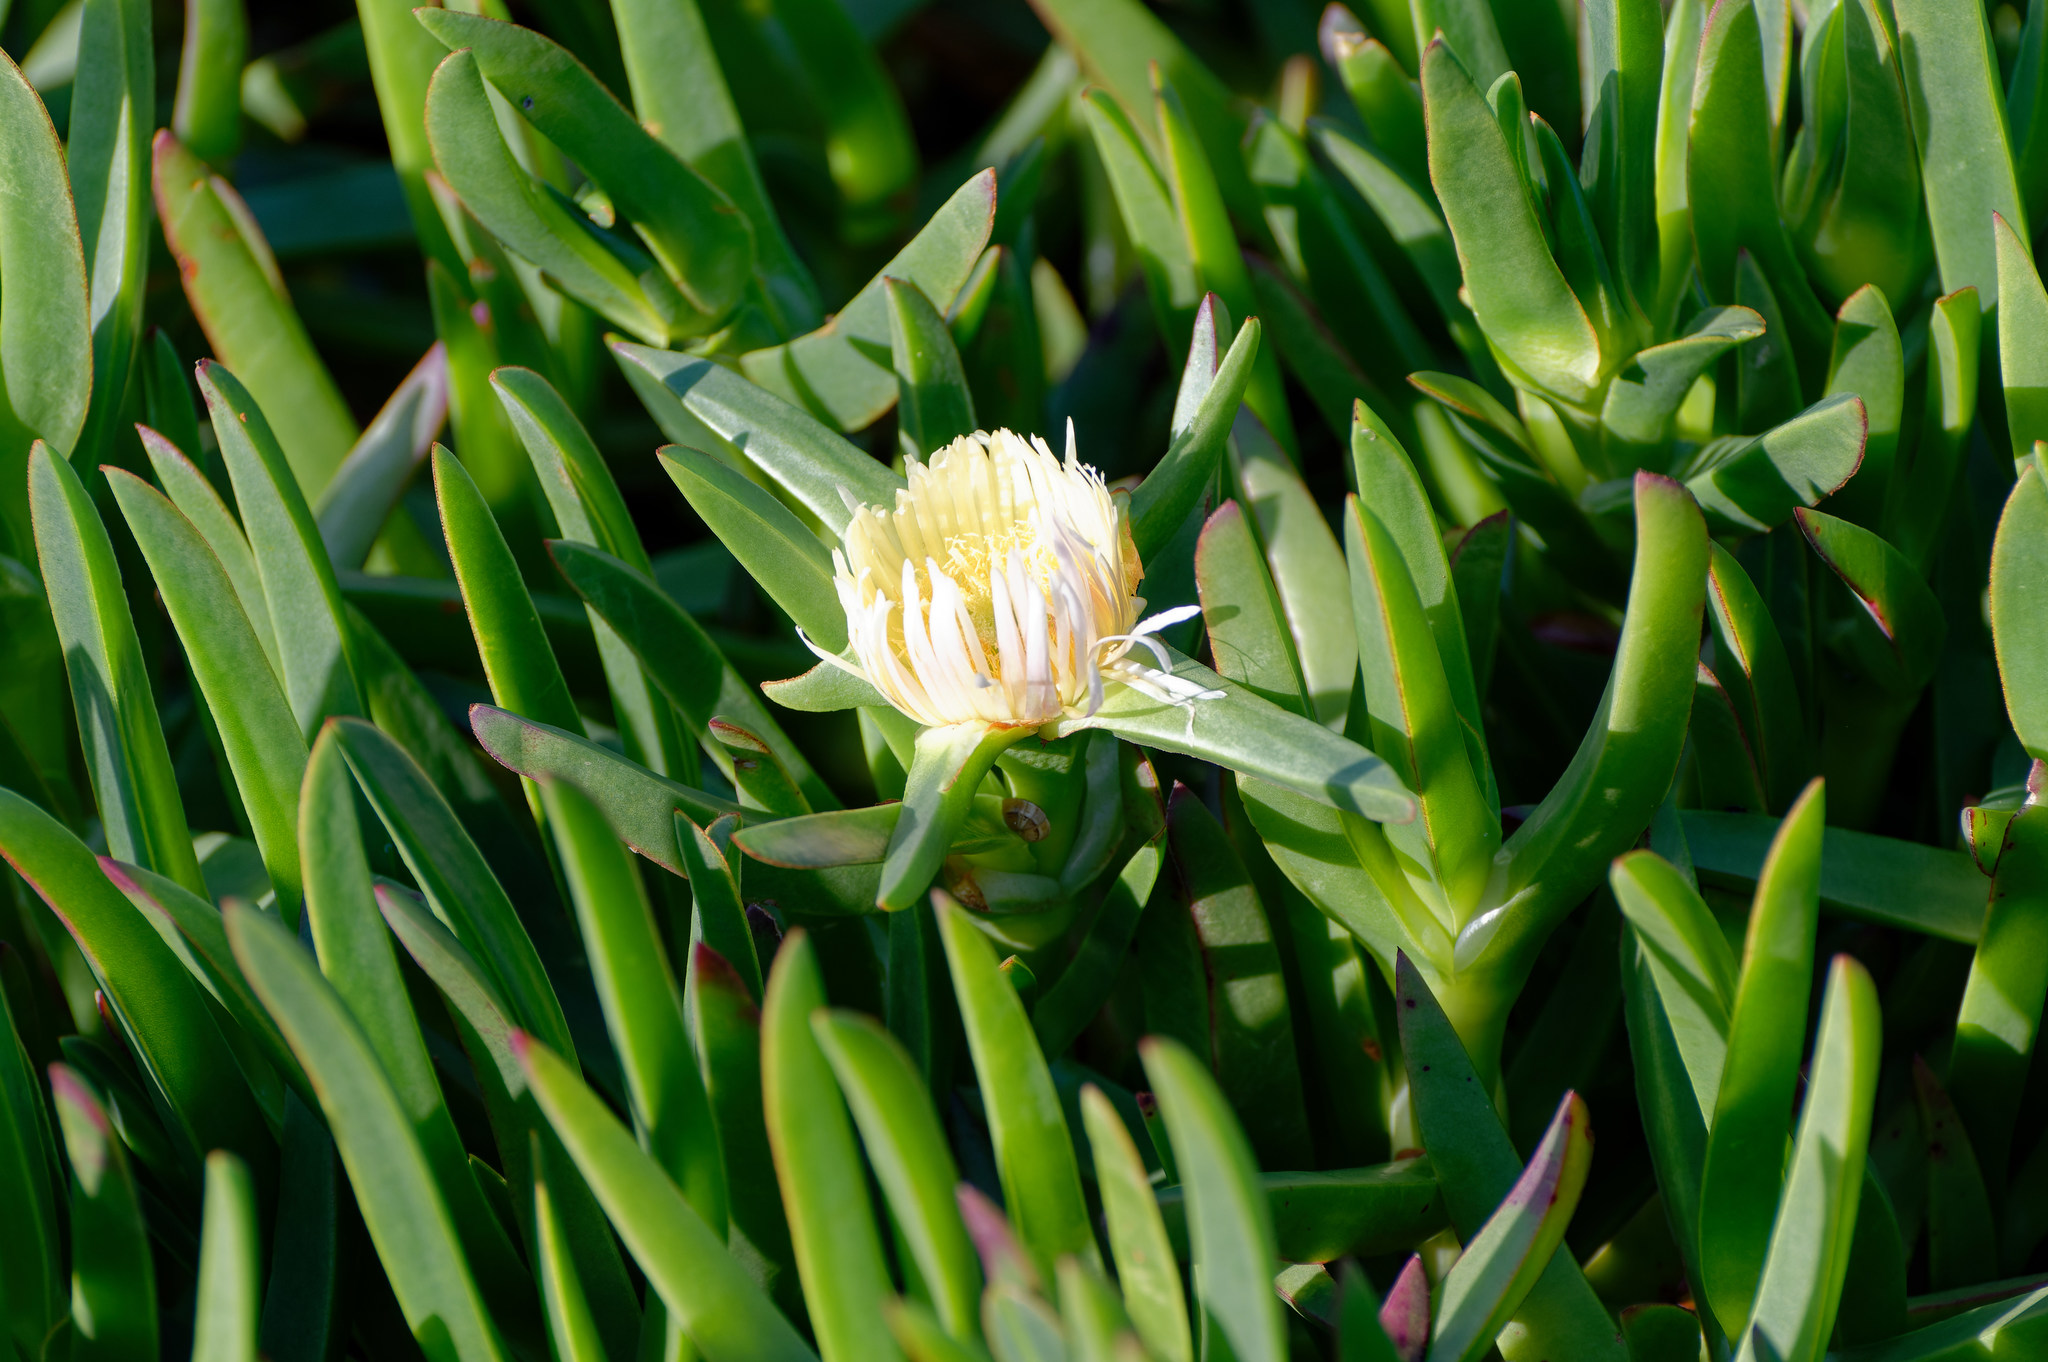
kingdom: Plantae
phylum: Tracheophyta
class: Magnoliopsida
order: Caryophyllales
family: Aizoaceae
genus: Carpobrotus
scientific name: Carpobrotus edulis
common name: Hottentot-fig
